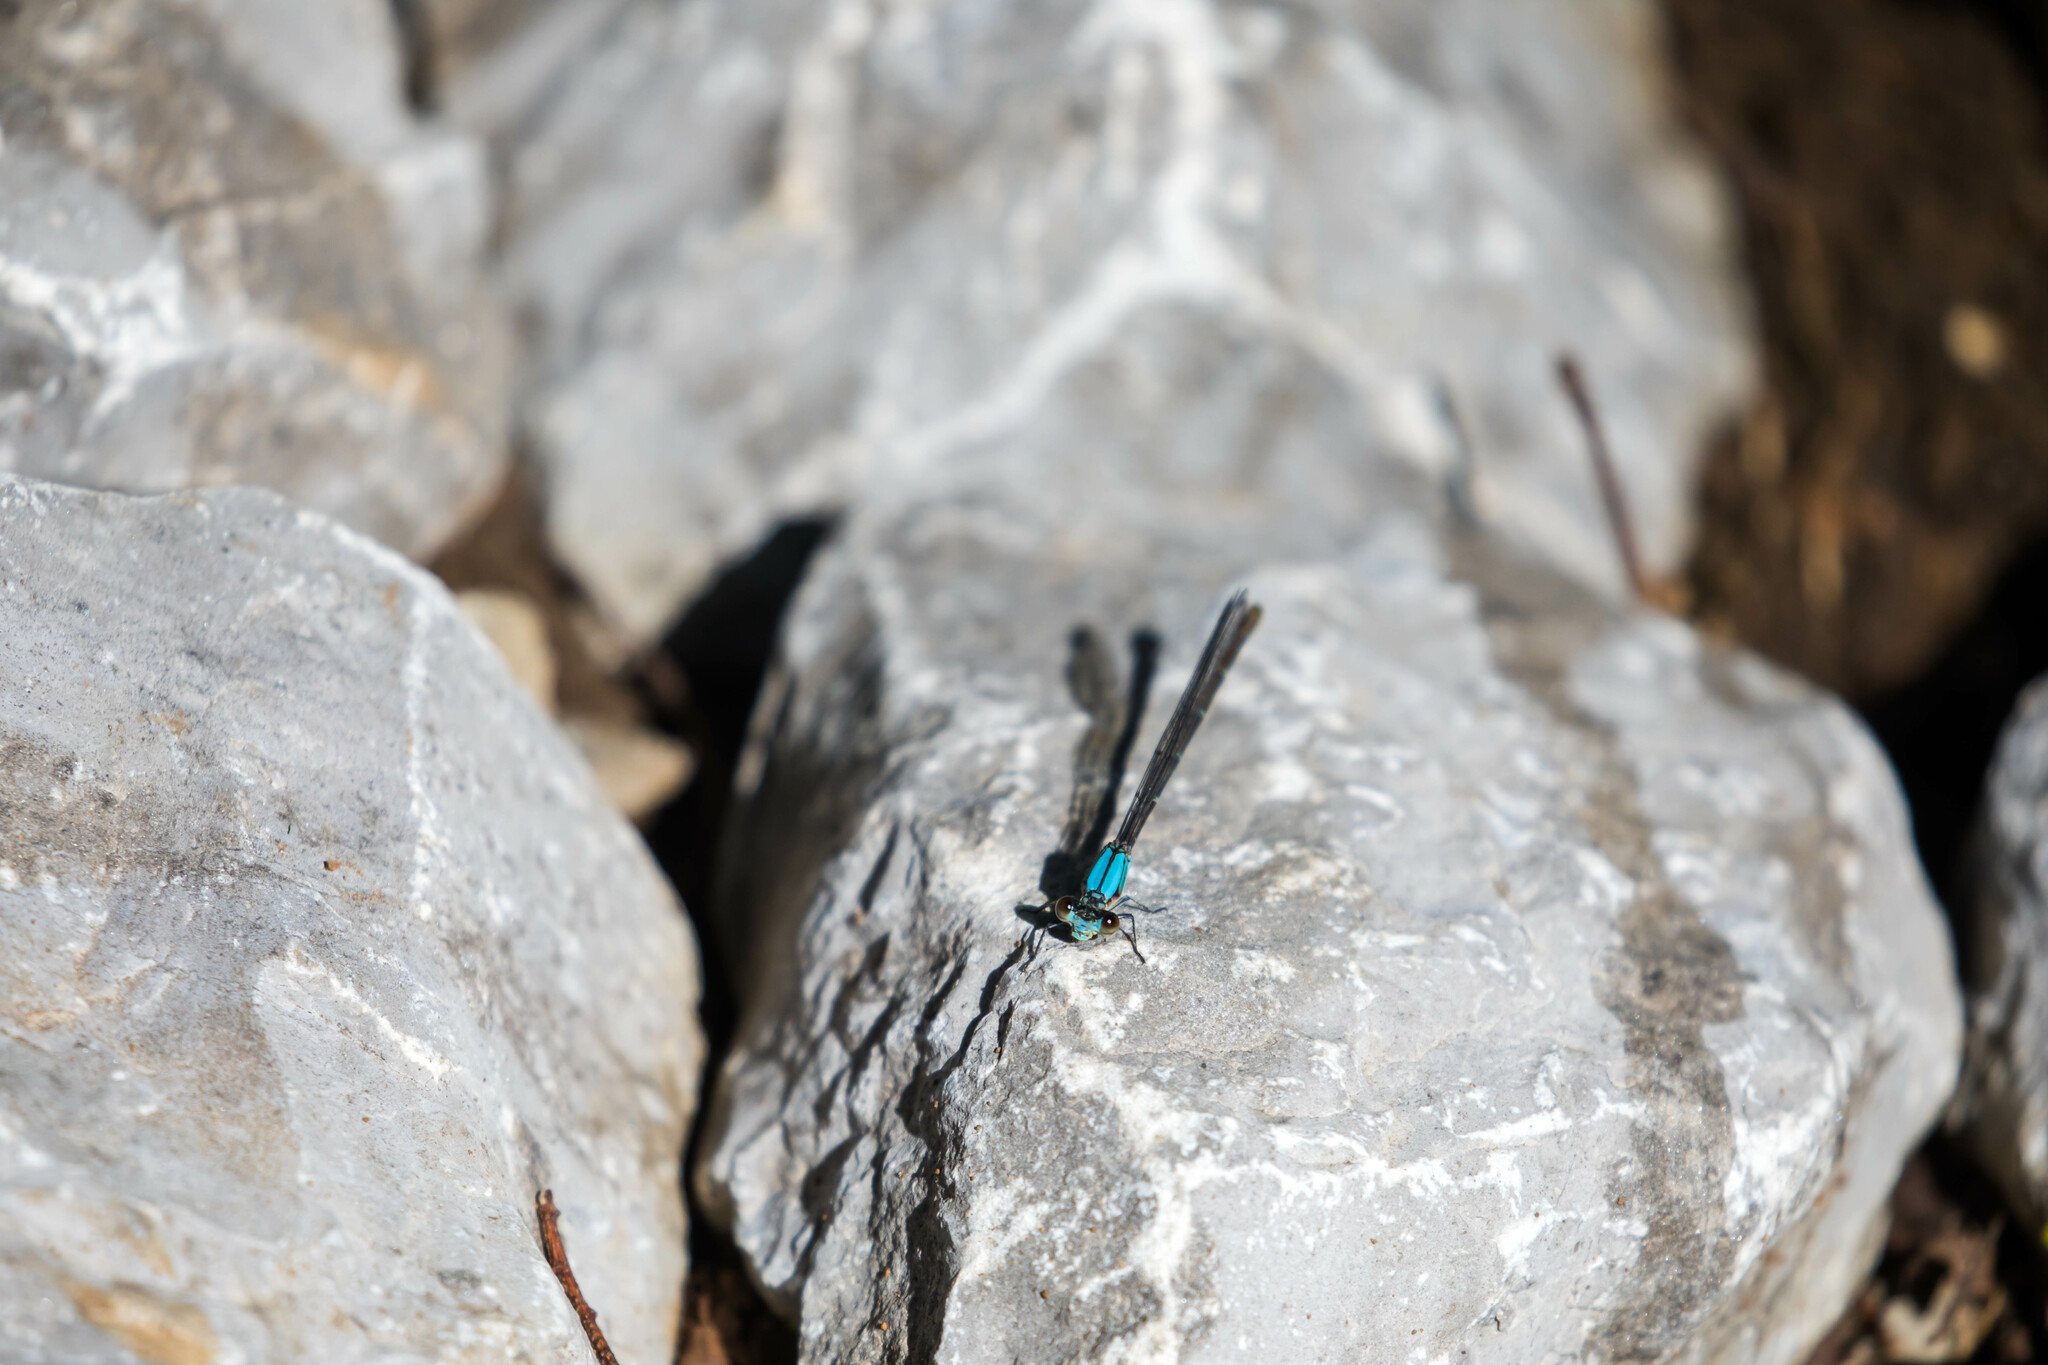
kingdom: Animalia
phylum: Arthropoda
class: Insecta
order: Odonata
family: Coenagrionidae
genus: Argia
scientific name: Argia apicalis
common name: Blue-fronted dancer
